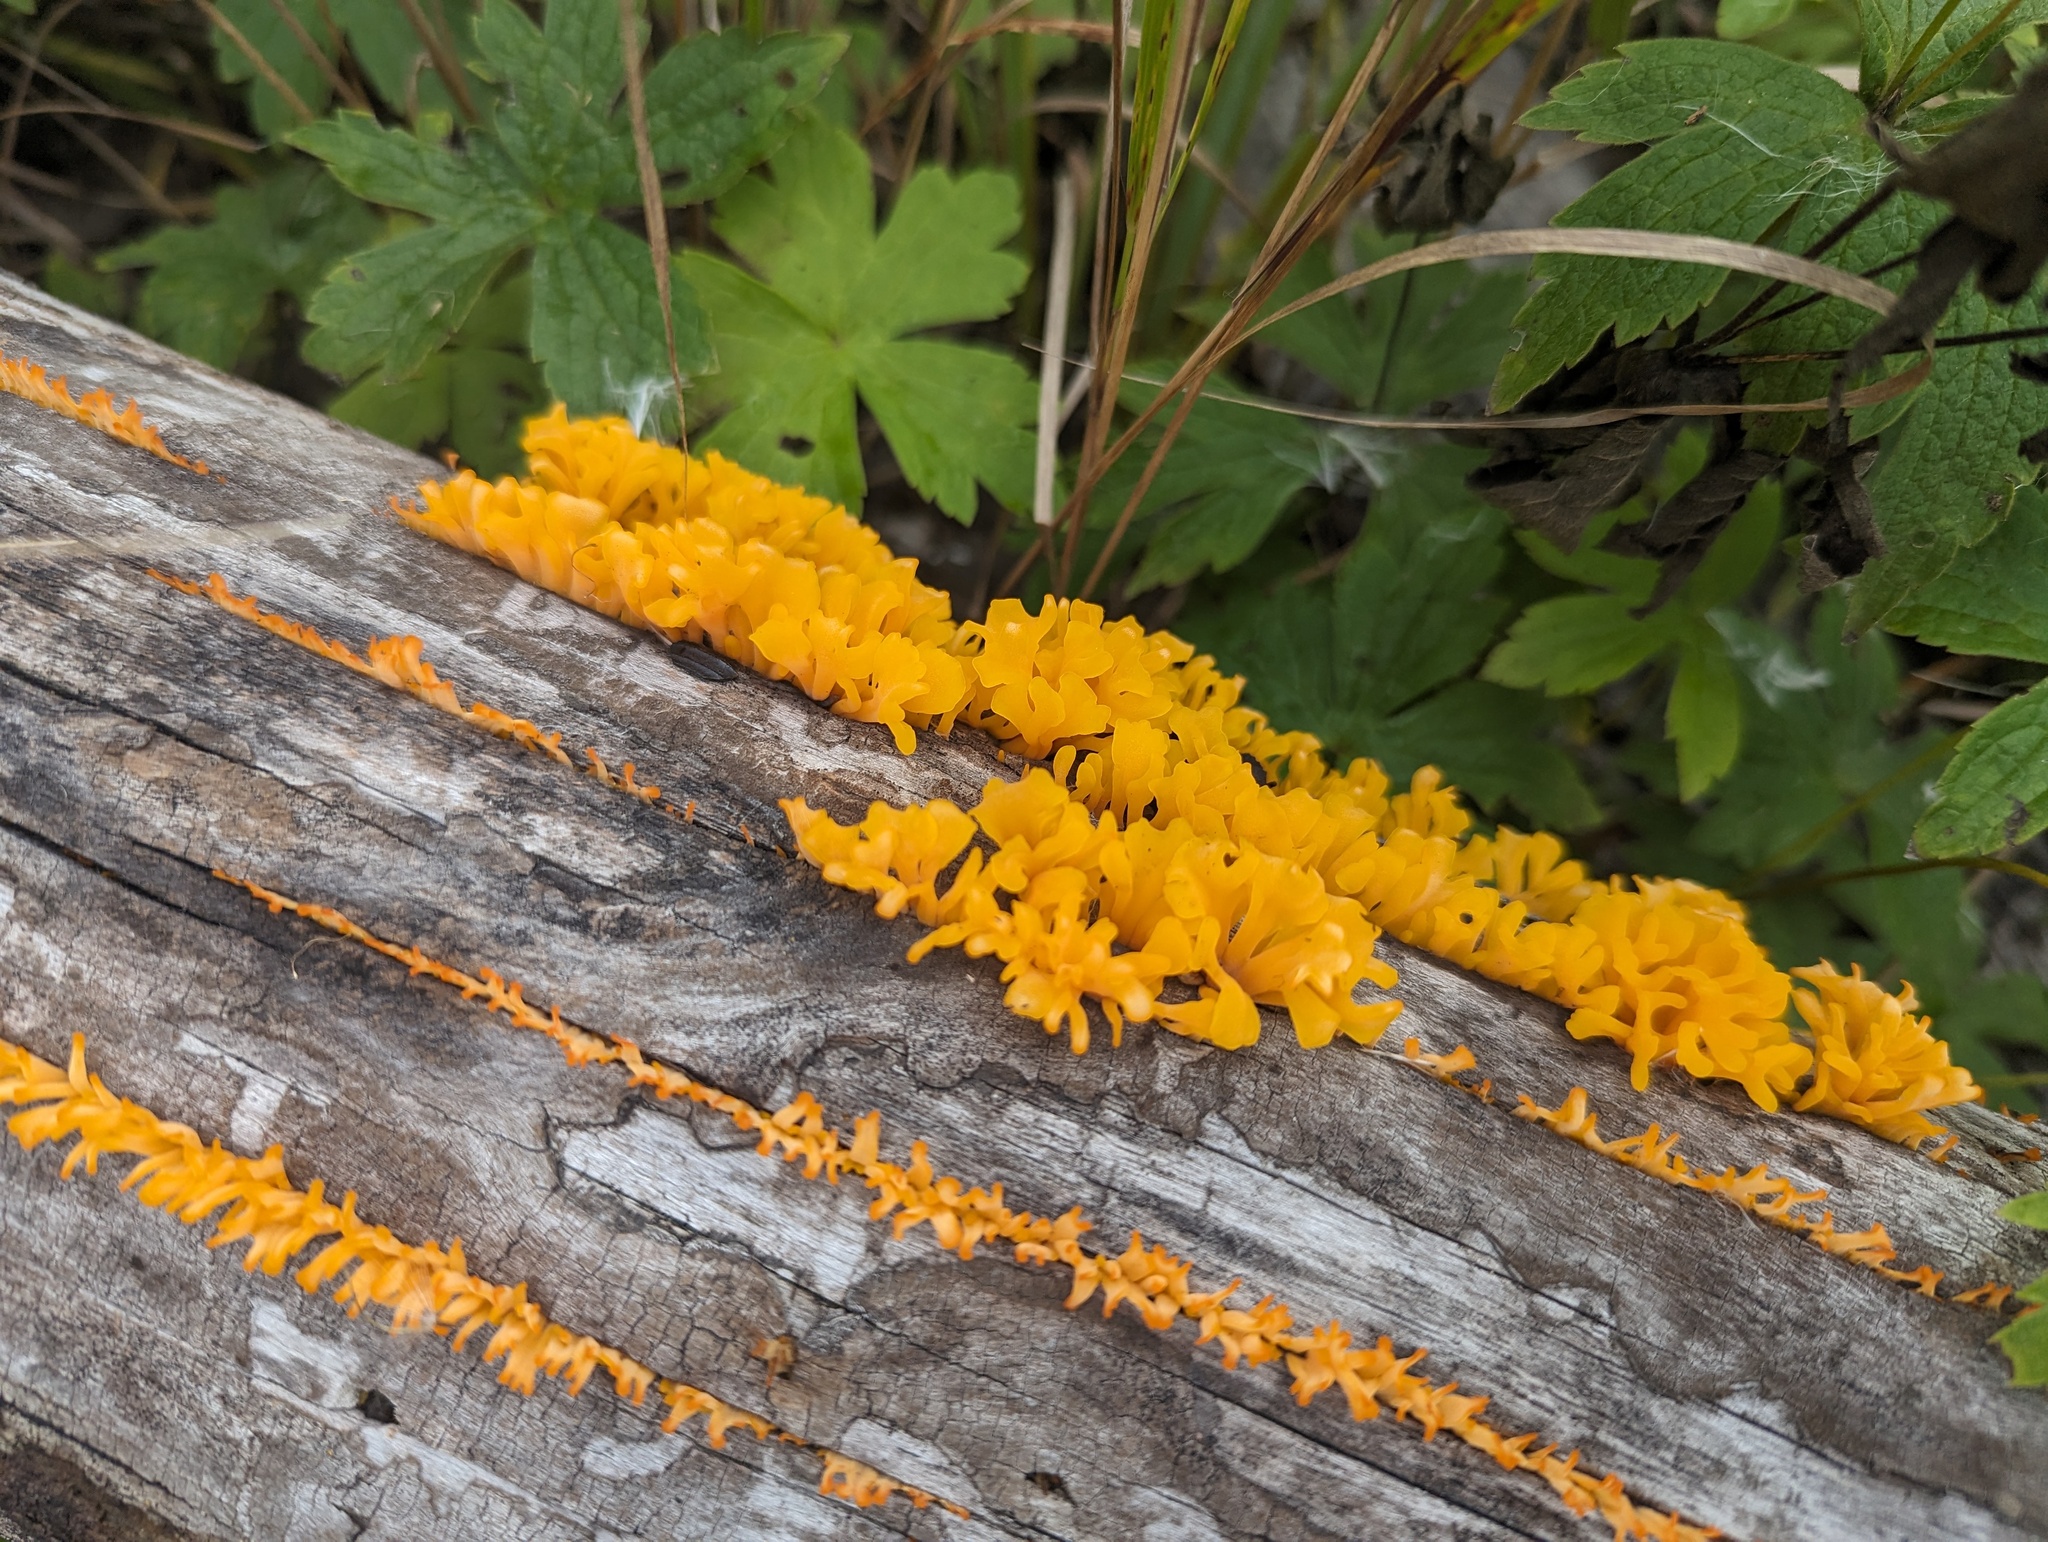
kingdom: Fungi
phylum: Basidiomycota
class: Dacrymycetes
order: Dacrymycetales
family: Dacrymycetaceae
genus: Dacrymyces
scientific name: Dacrymyces spathularius
